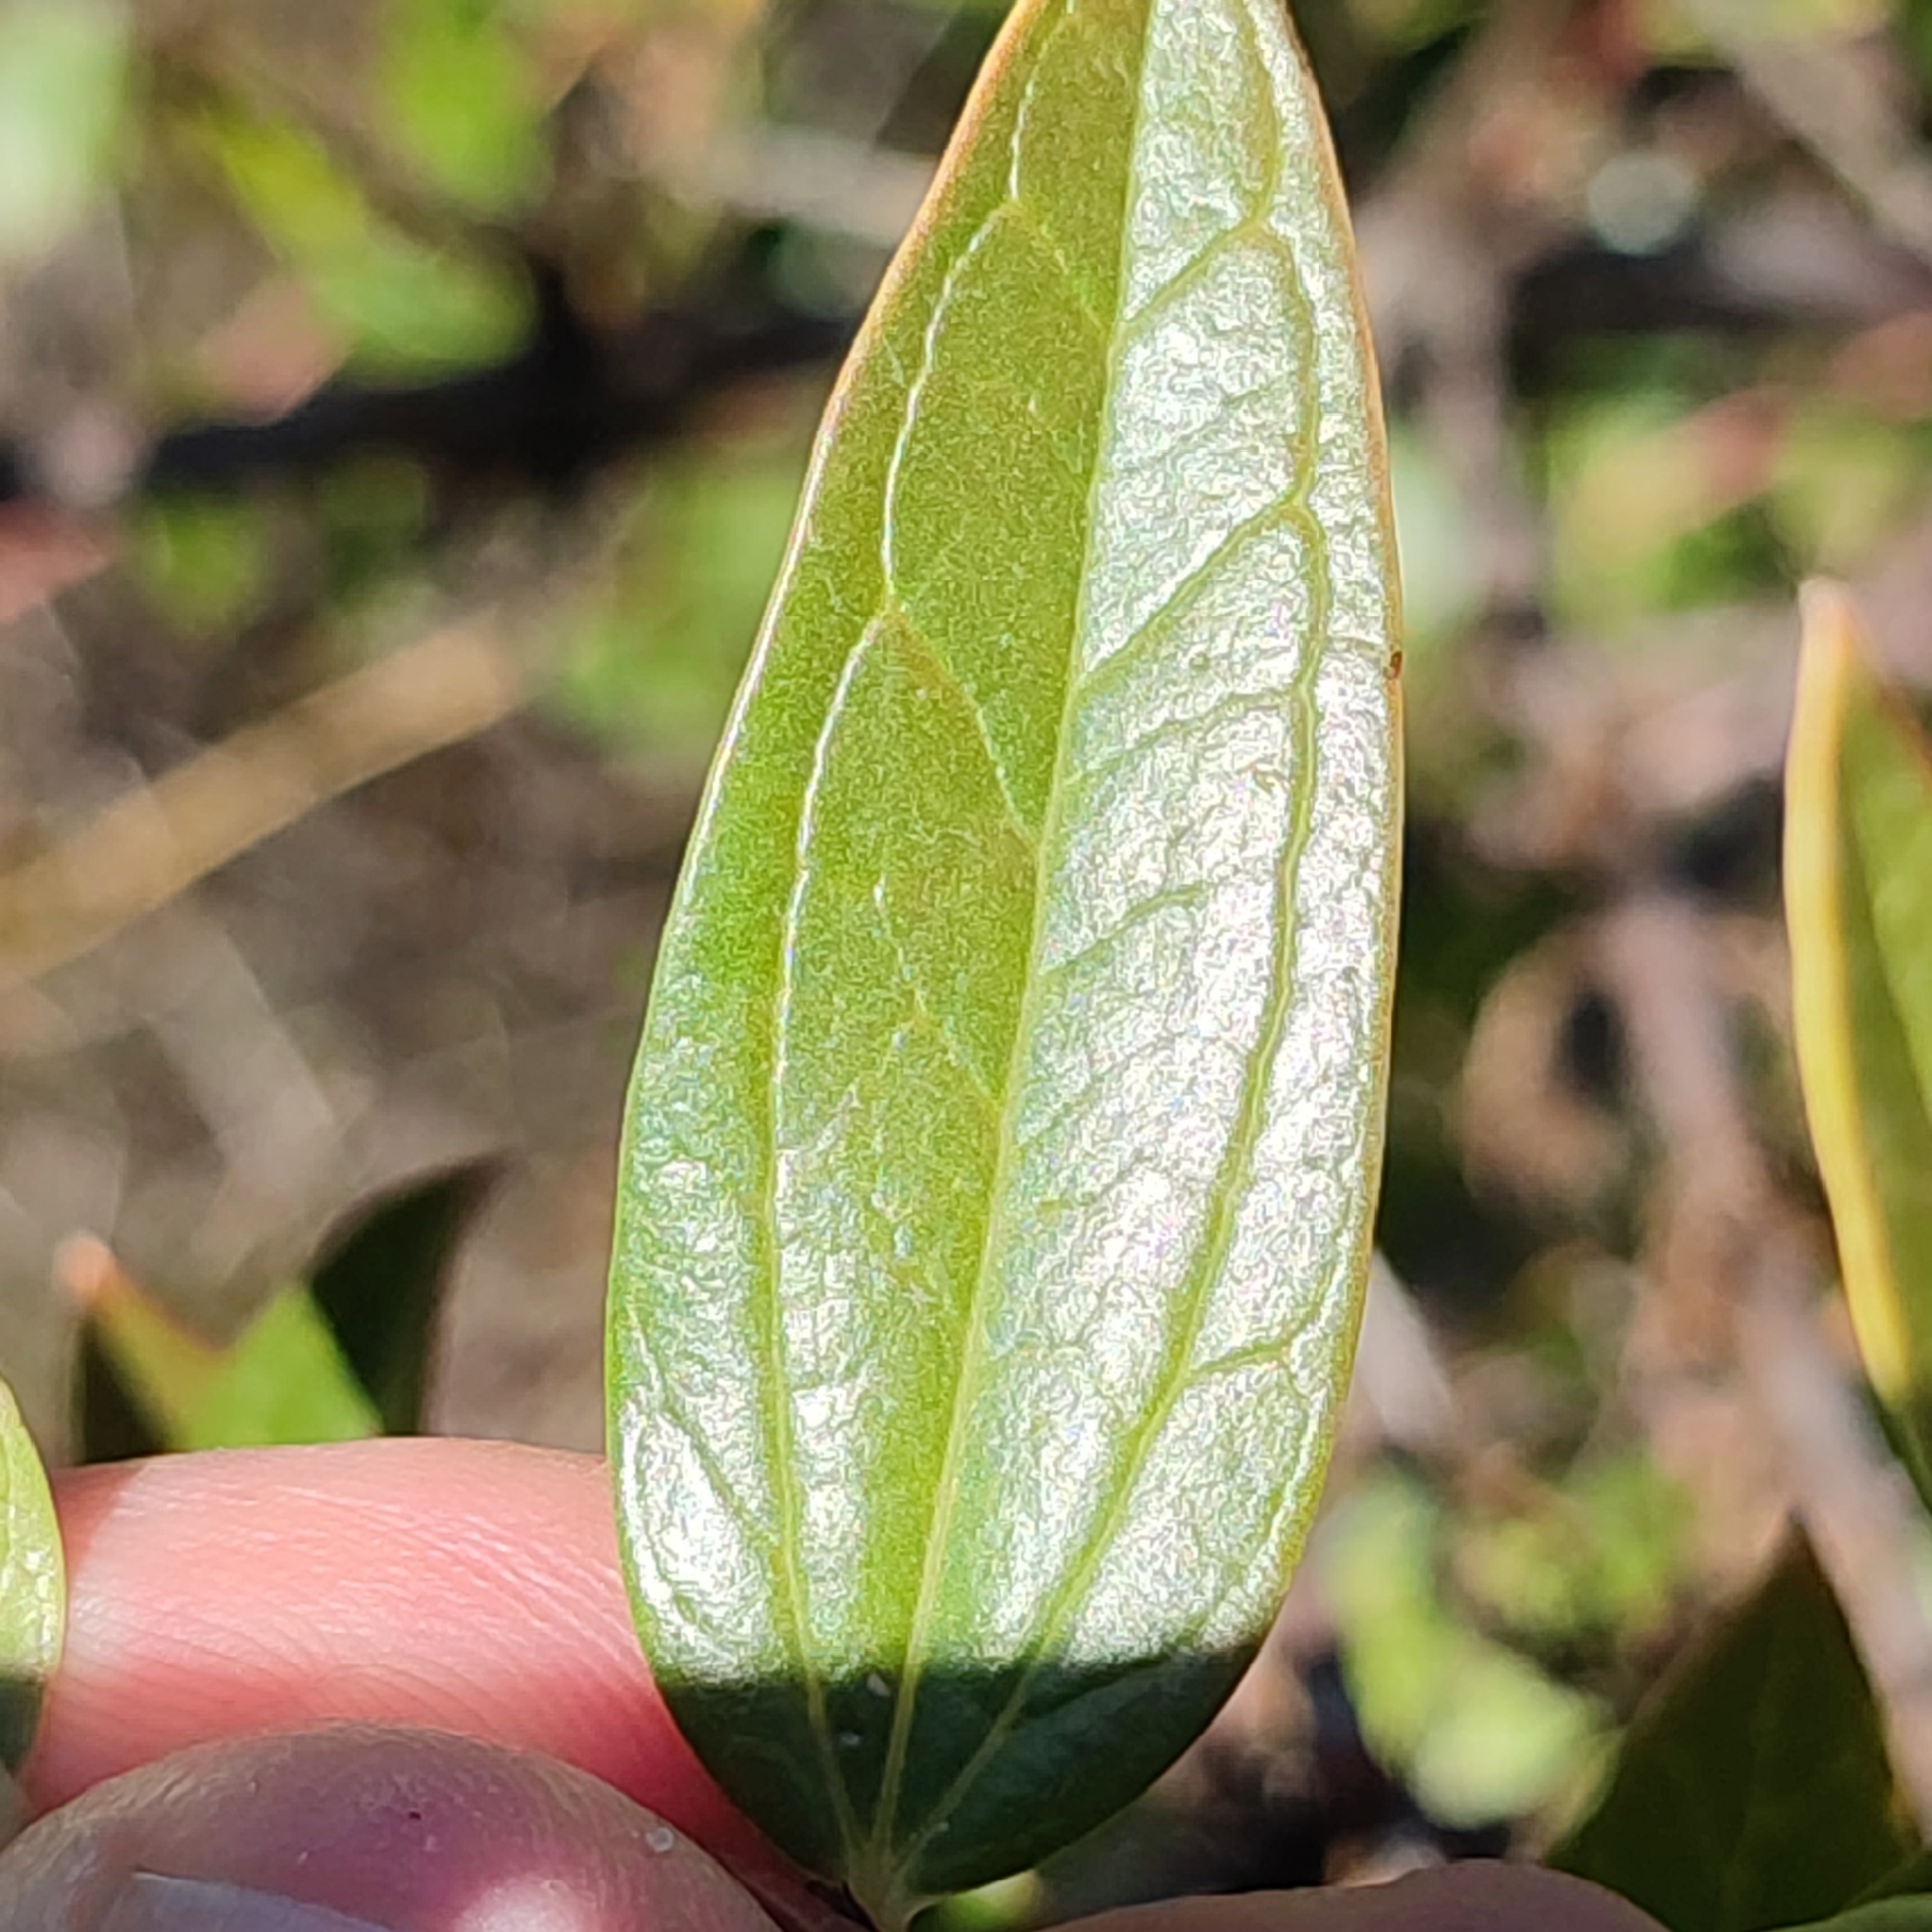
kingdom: Plantae
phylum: Tracheophyta
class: Magnoliopsida
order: Cucurbitales
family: Coriariaceae
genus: Coriaria
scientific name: Coriaria myrtifolia
